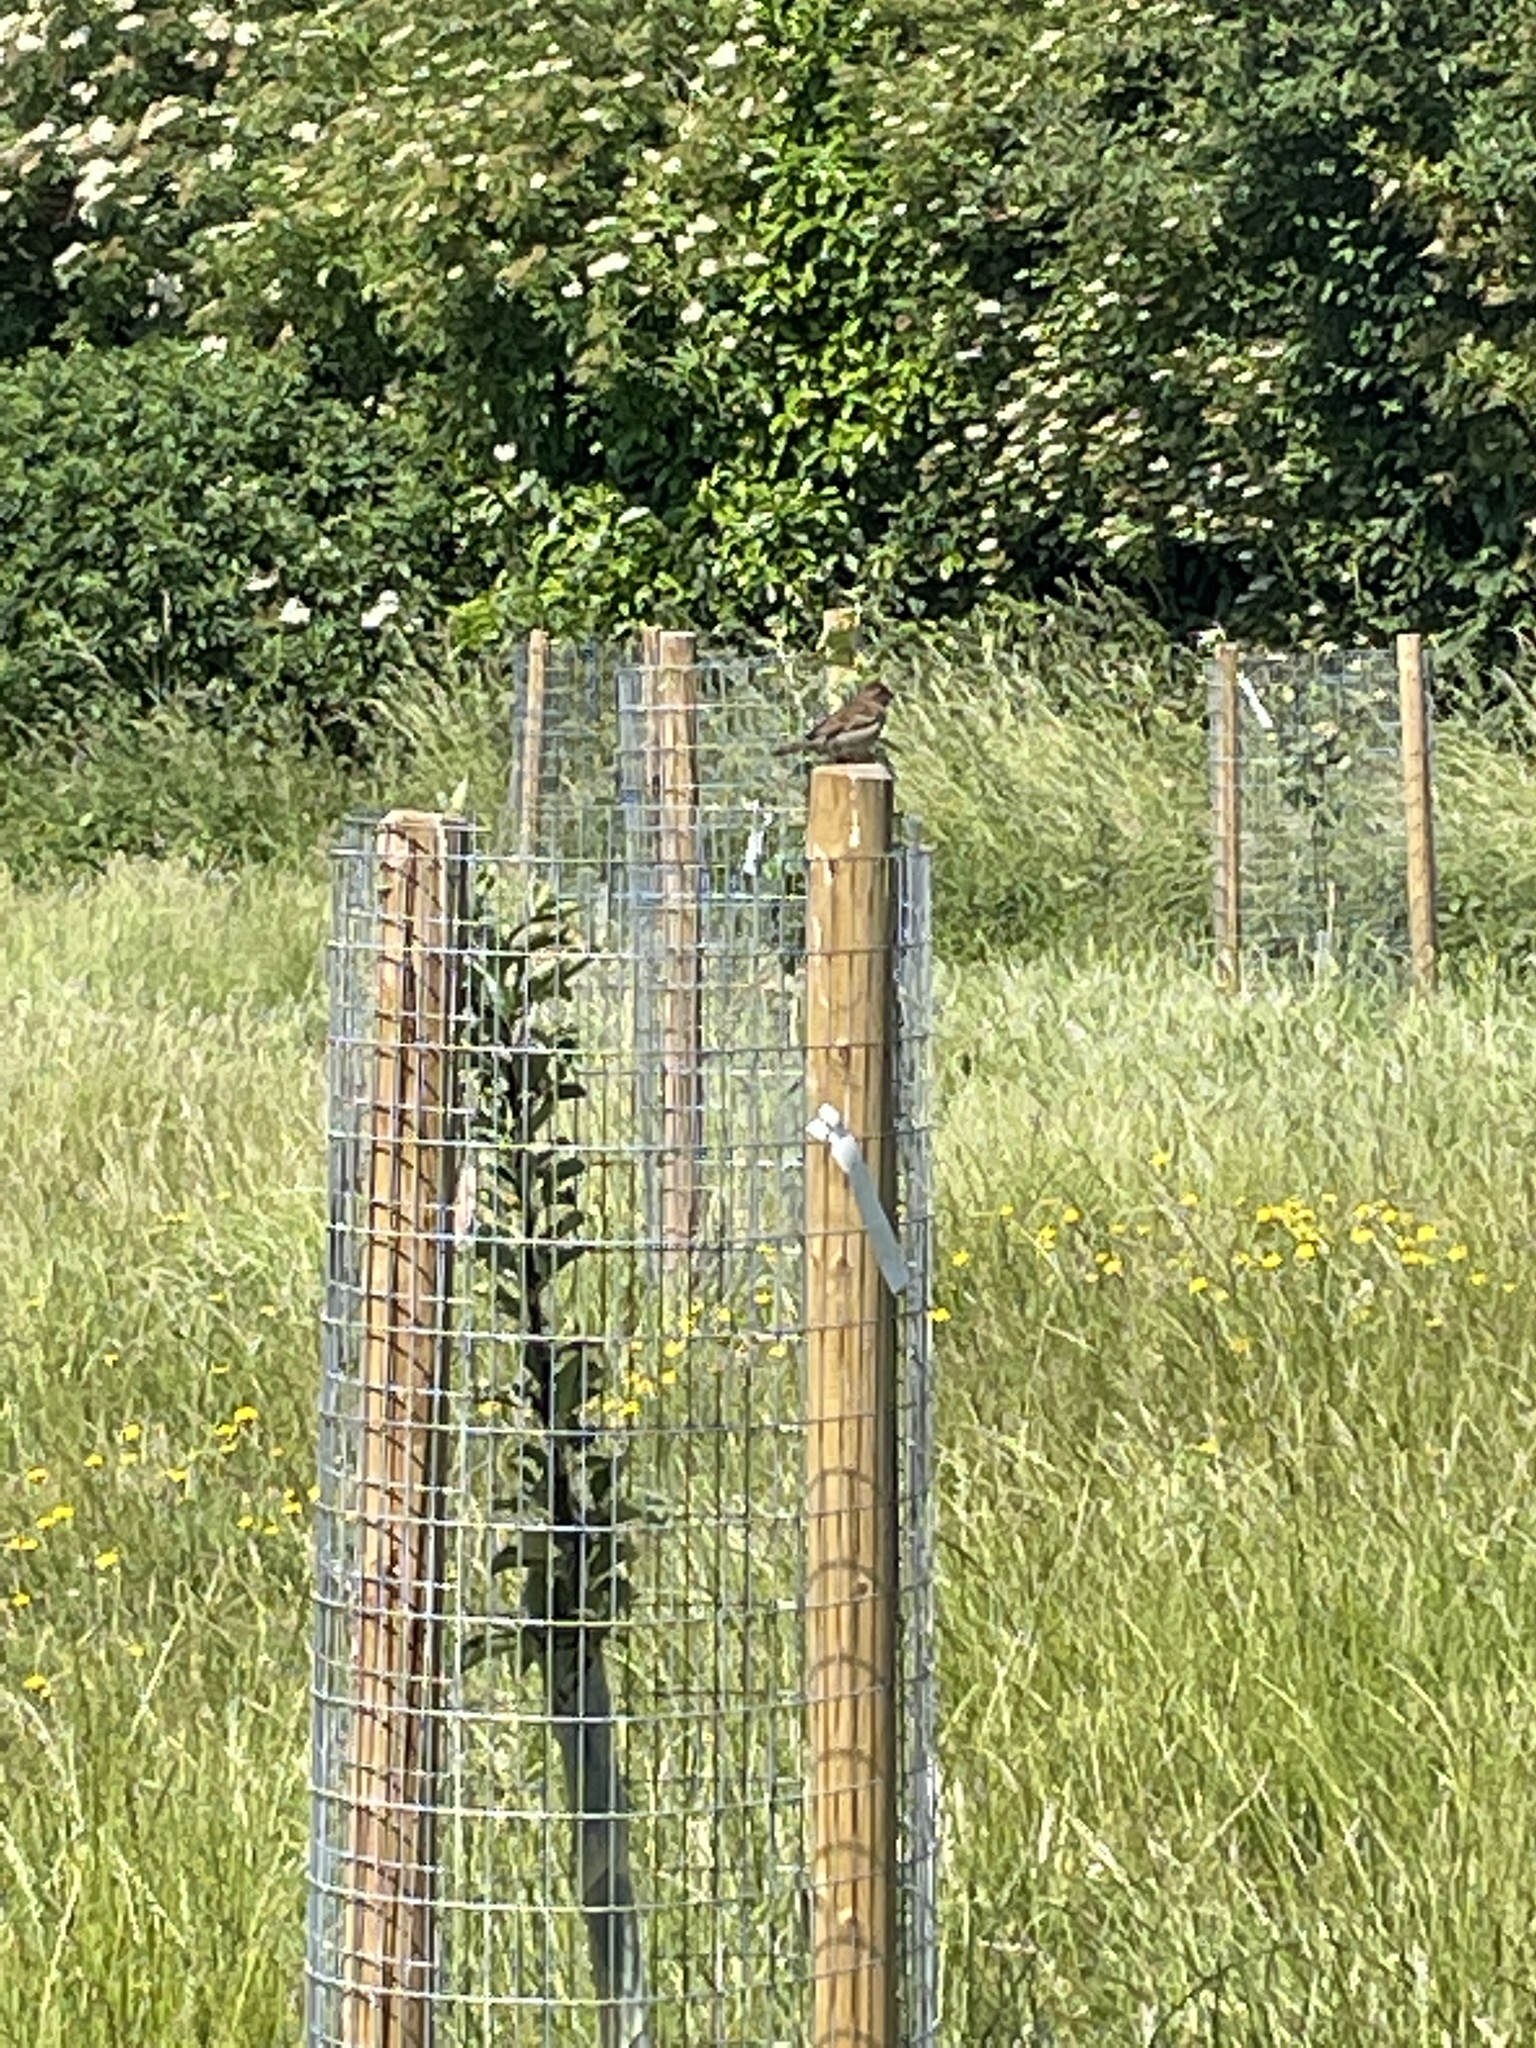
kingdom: Animalia
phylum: Chordata
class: Aves
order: Passeriformes
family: Passeridae
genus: Passer
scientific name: Passer domesticus
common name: House sparrow
